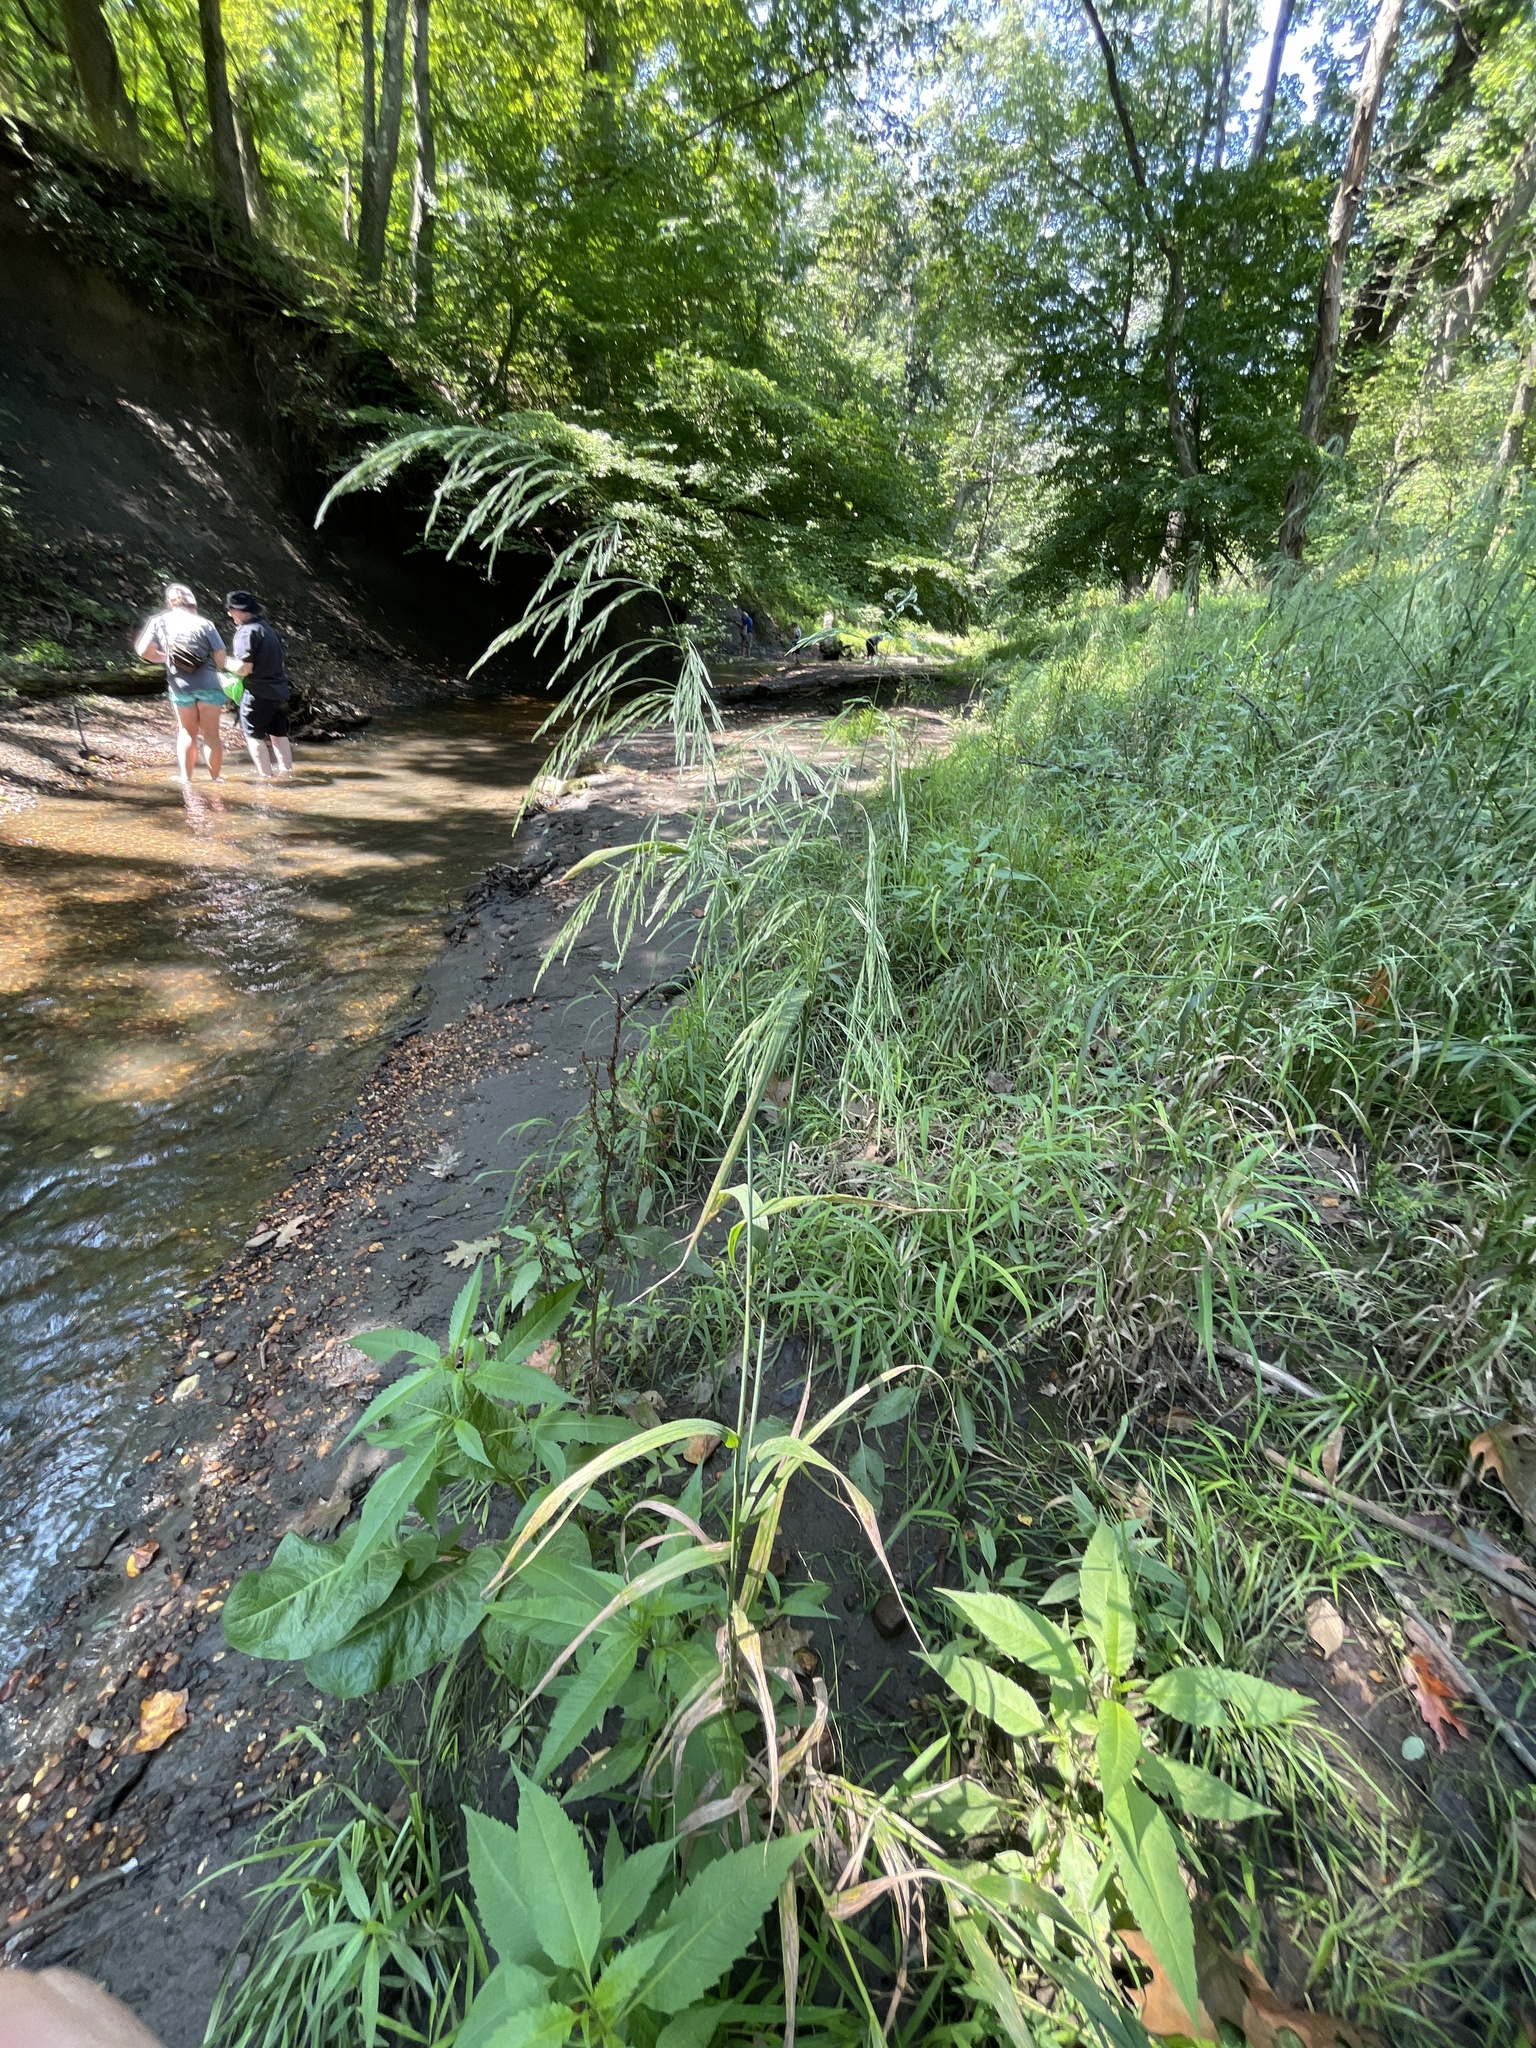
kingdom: Plantae
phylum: Tracheophyta
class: Liliopsida
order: Poales
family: Poaceae
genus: Cinna
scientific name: Cinna arundinacea
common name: Stout woodreed
